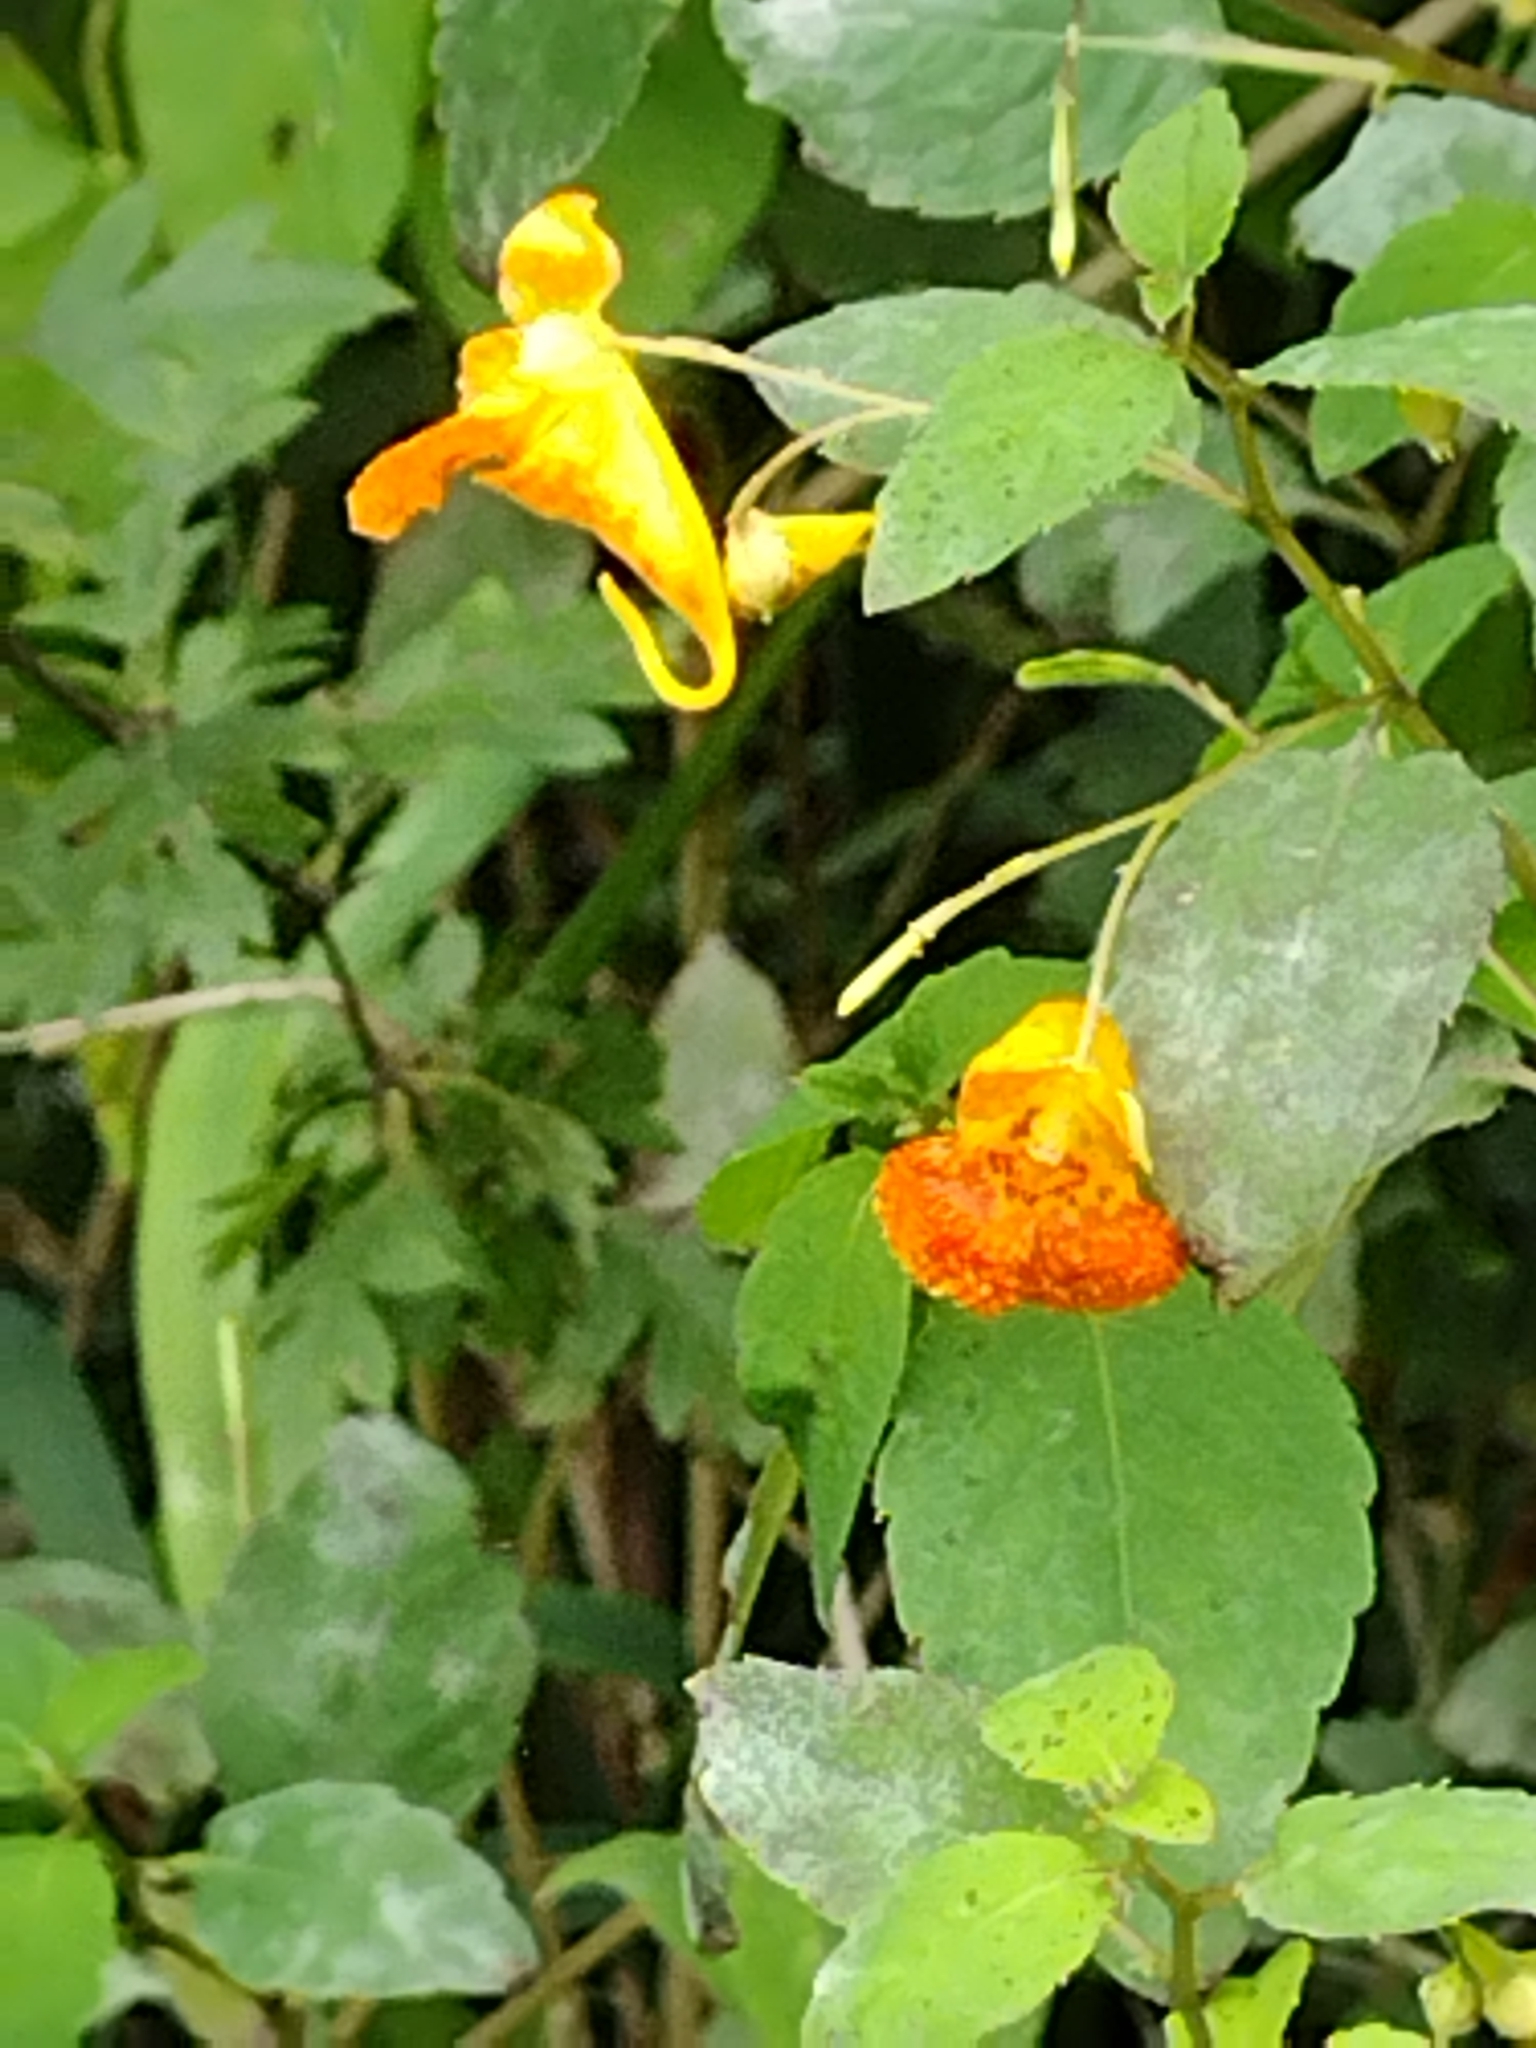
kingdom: Plantae
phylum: Tracheophyta
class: Magnoliopsida
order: Ericales
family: Balsaminaceae
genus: Impatiens
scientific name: Impatiens capensis
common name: Orange balsam
